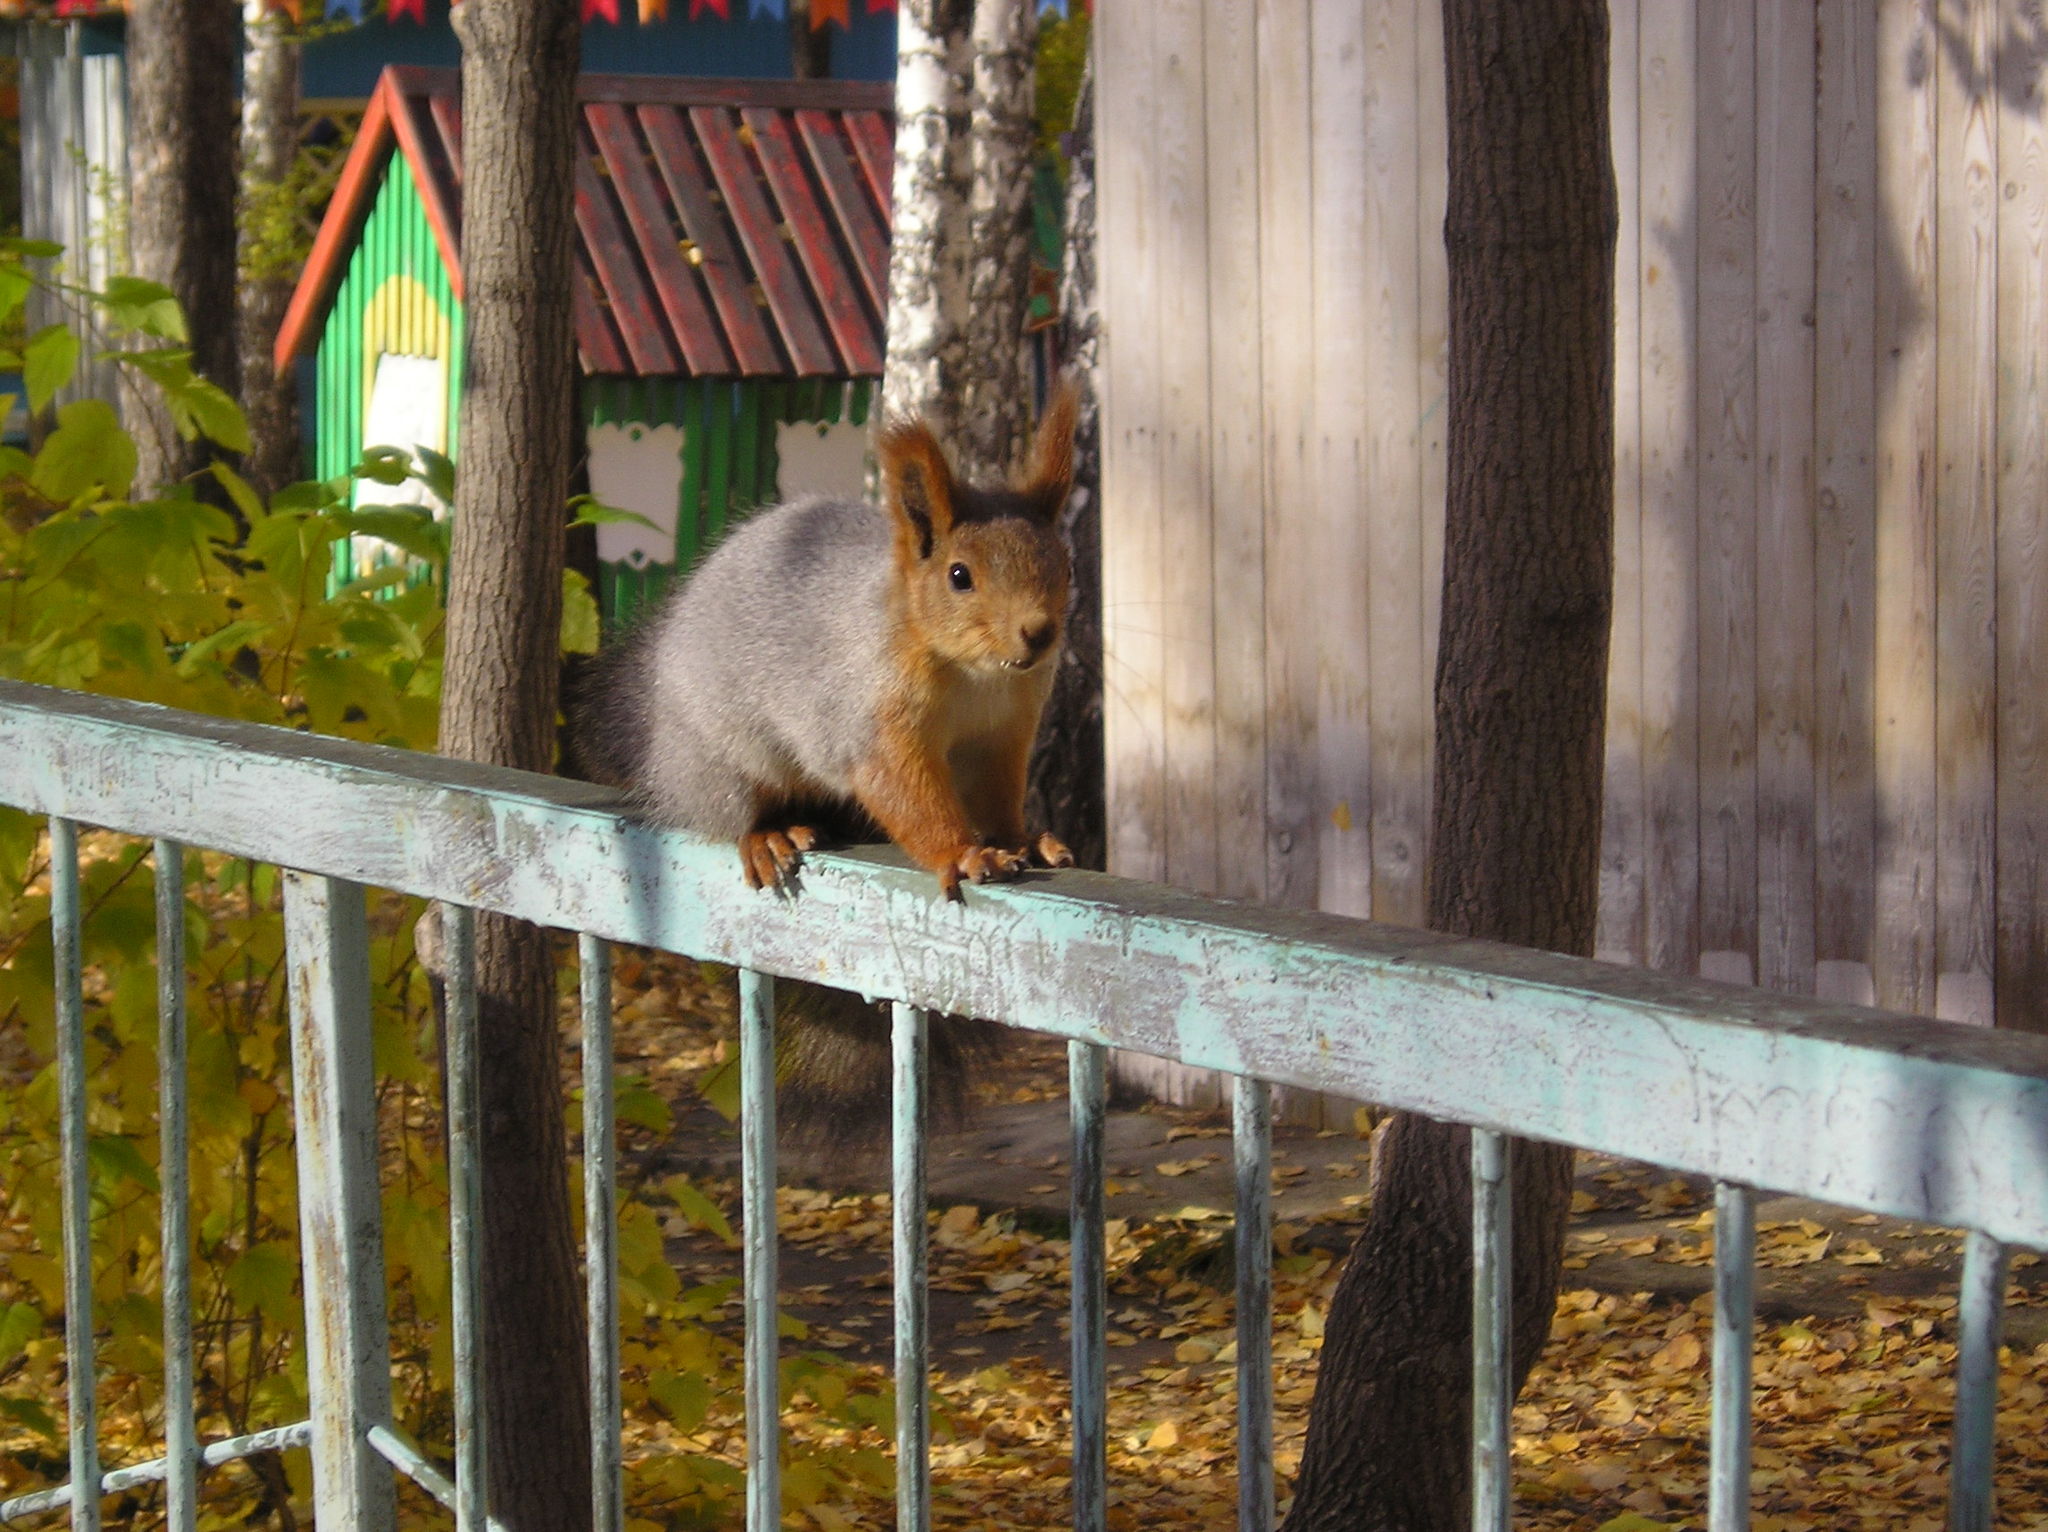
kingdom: Animalia
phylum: Chordata
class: Mammalia
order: Rodentia
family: Sciuridae
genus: Sciurus
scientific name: Sciurus vulgaris
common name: Eurasian red squirrel
